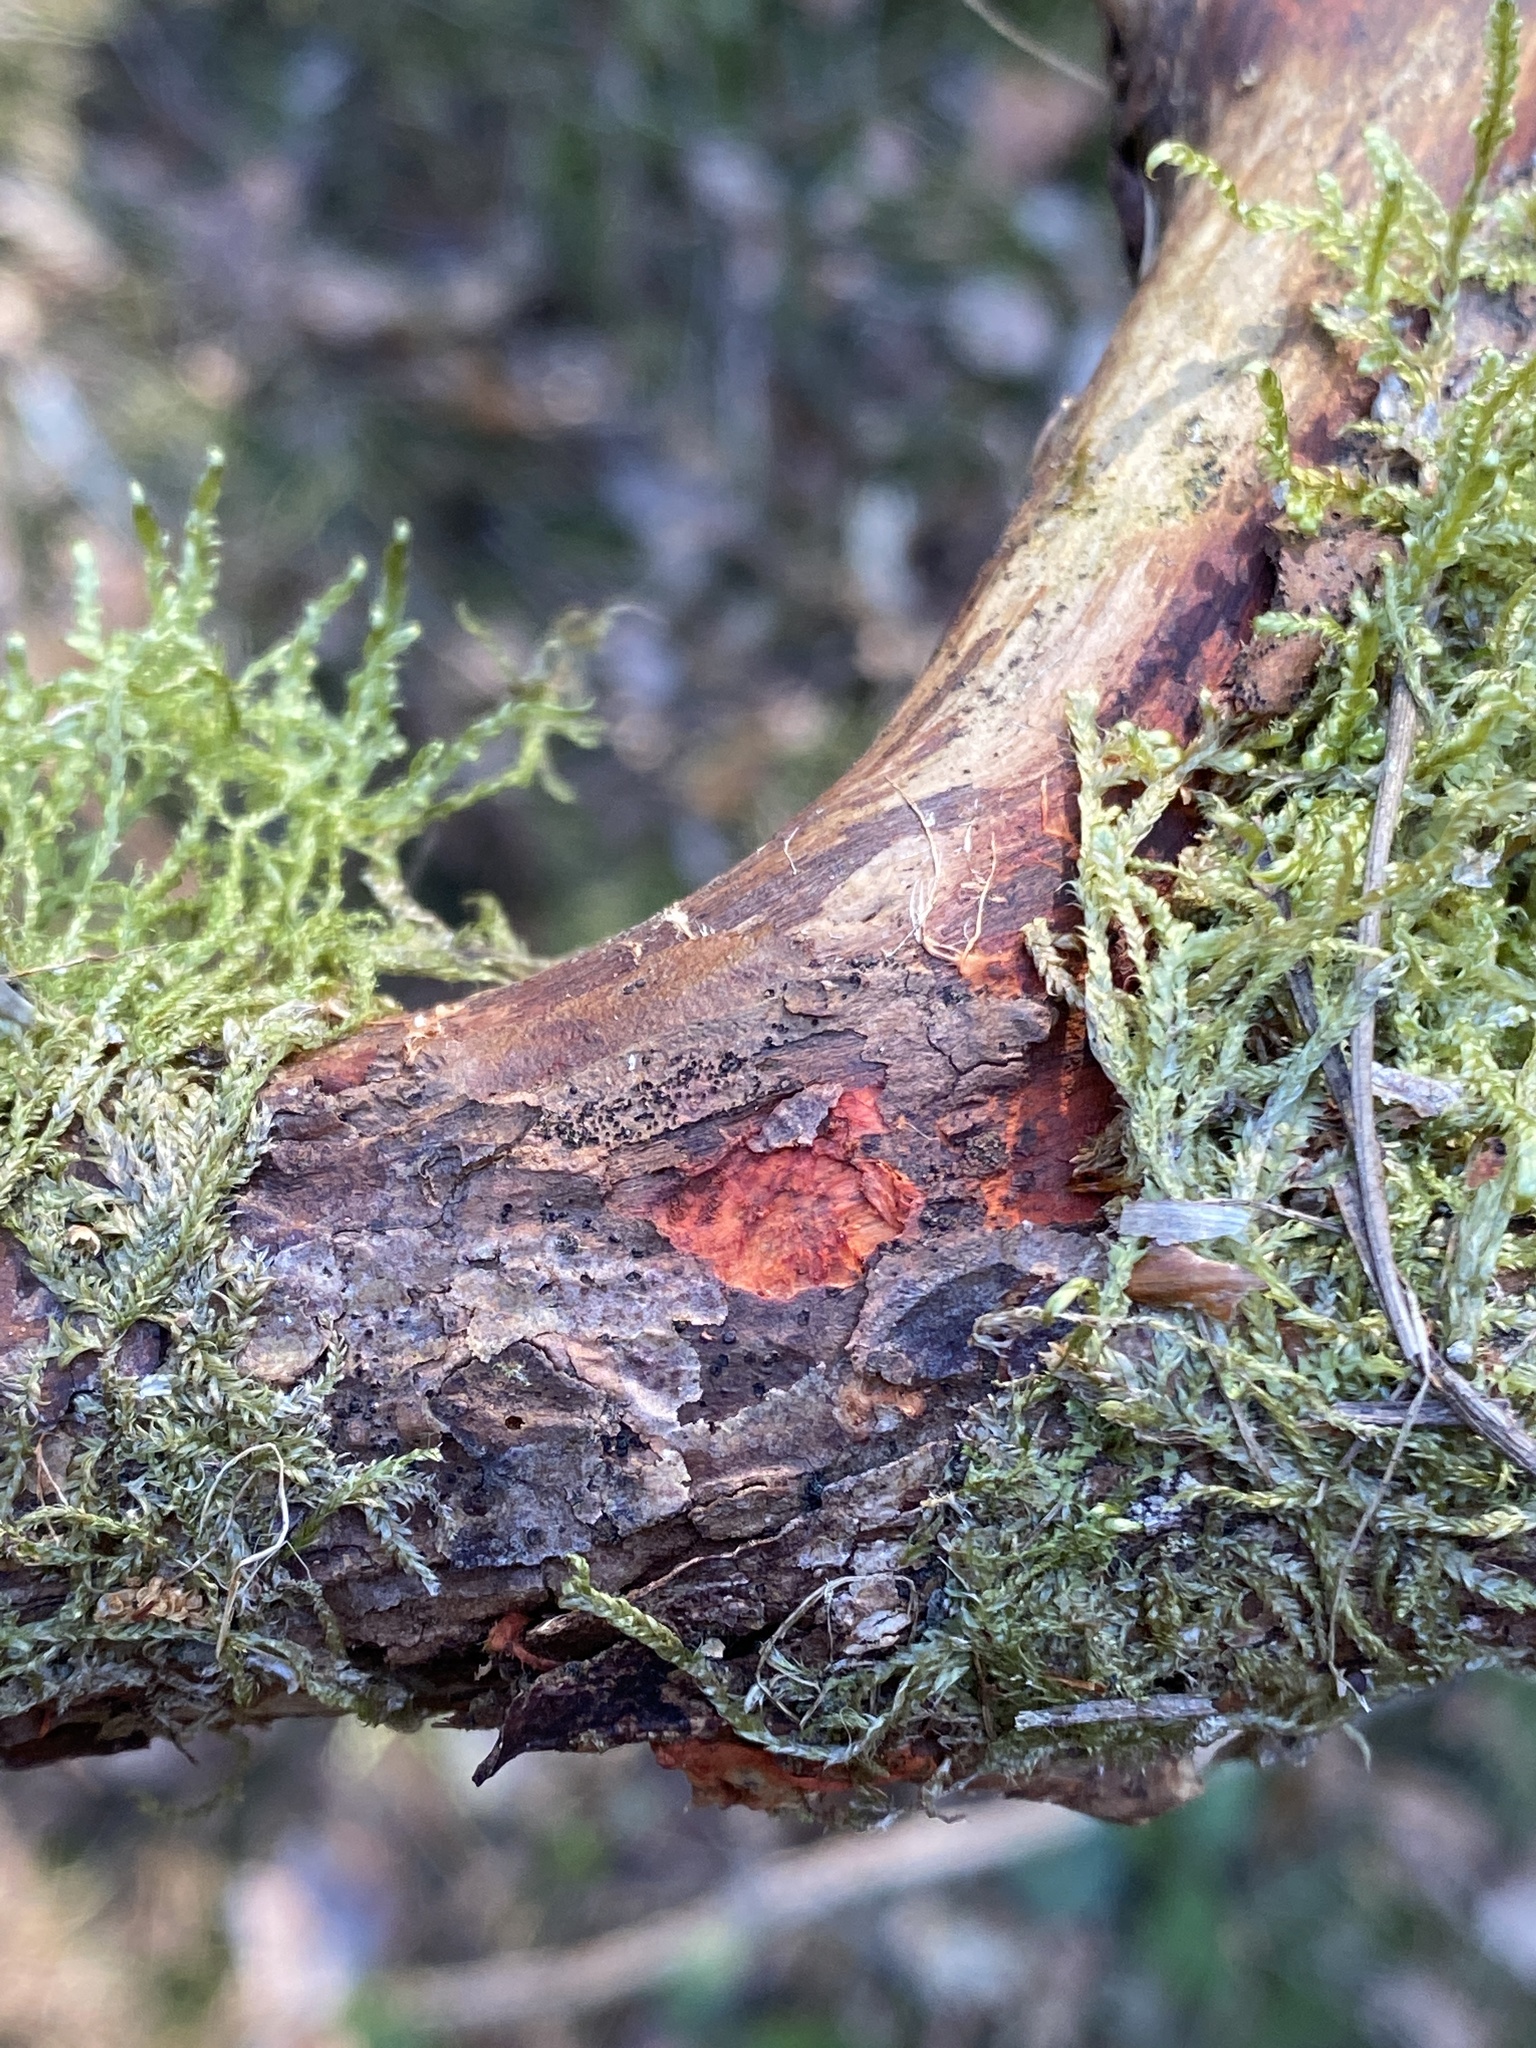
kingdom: Fungi
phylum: Basidiomycota
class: Agaricomycetes
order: Polyporales
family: Phanerochaetaceae
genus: Atheliachaete
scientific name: Atheliachaete sanguinea
